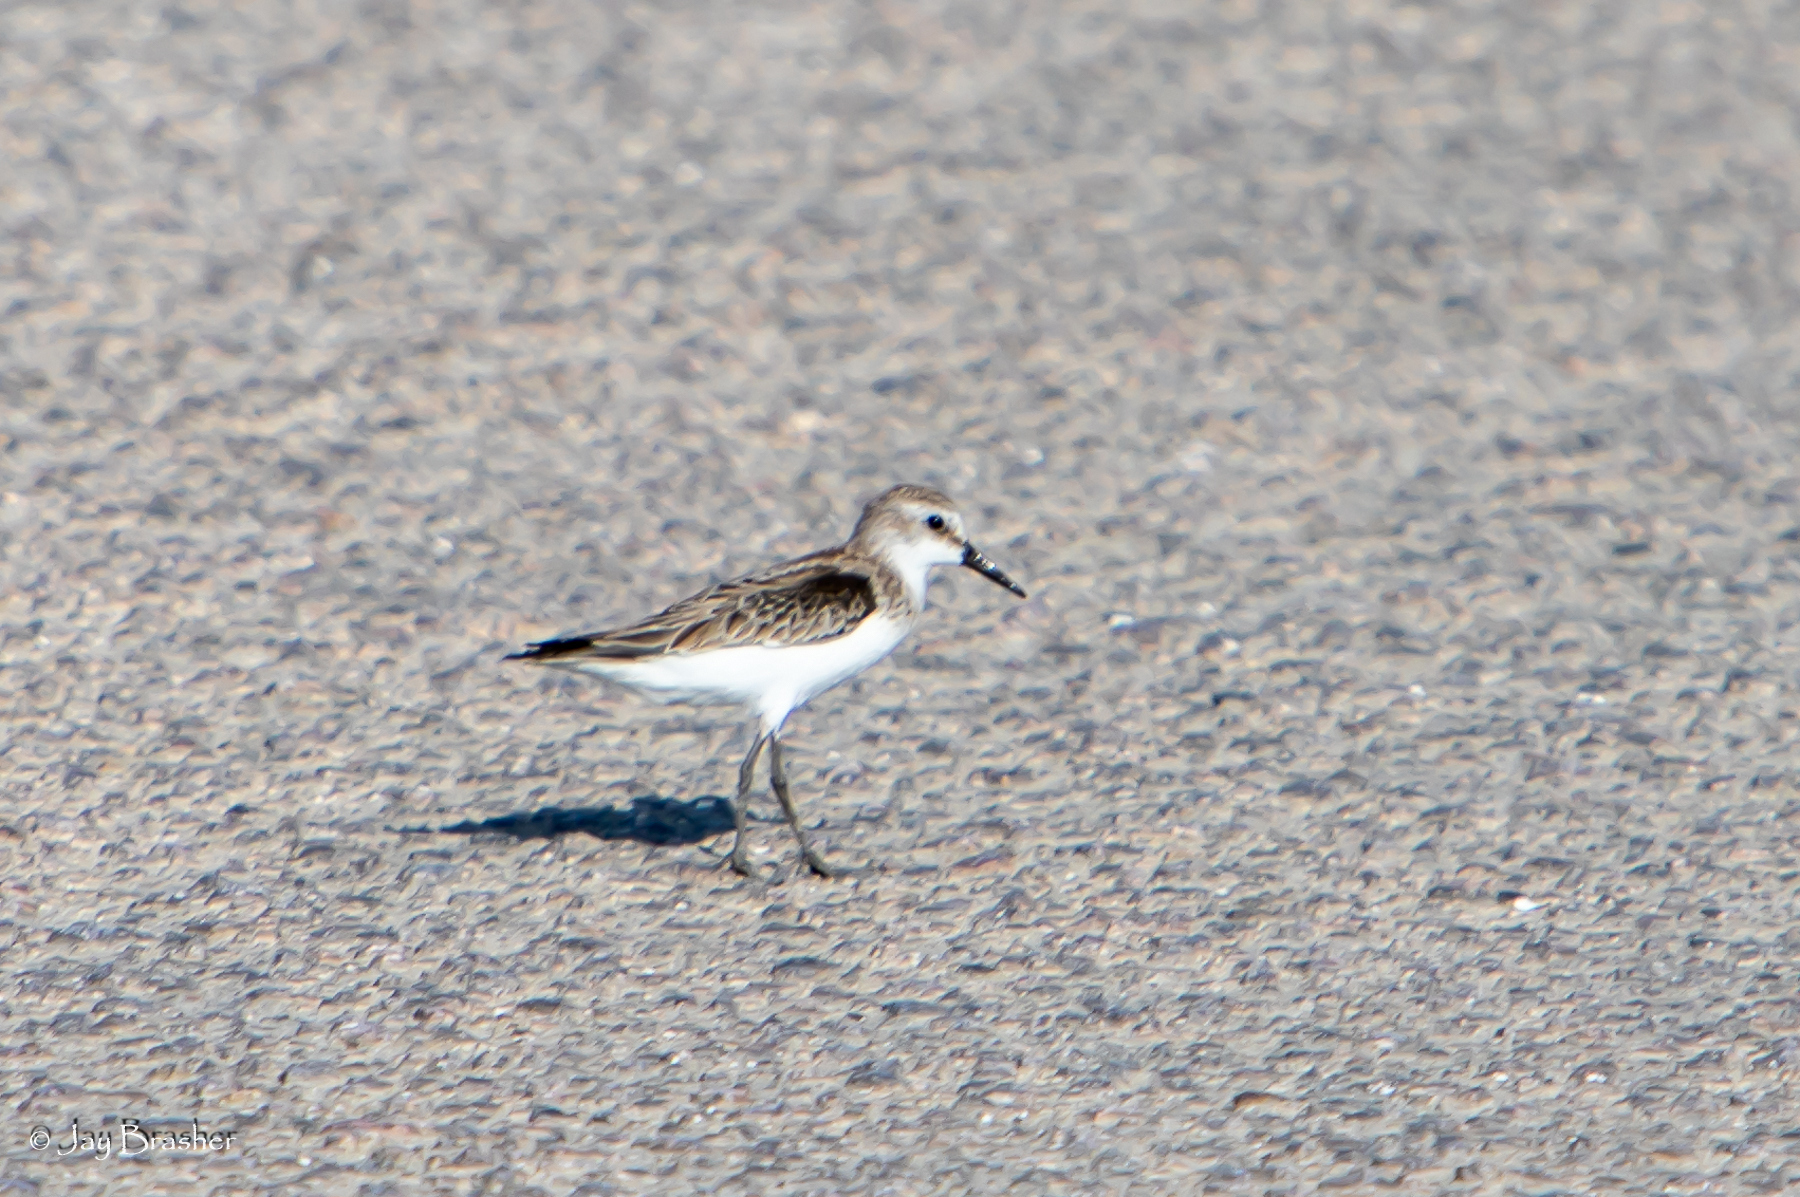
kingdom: Animalia
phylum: Chordata
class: Aves
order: Charadriiformes
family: Scolopacidae
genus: Calidris
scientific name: Calidris pusilla
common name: Semipalmated sandpiper
